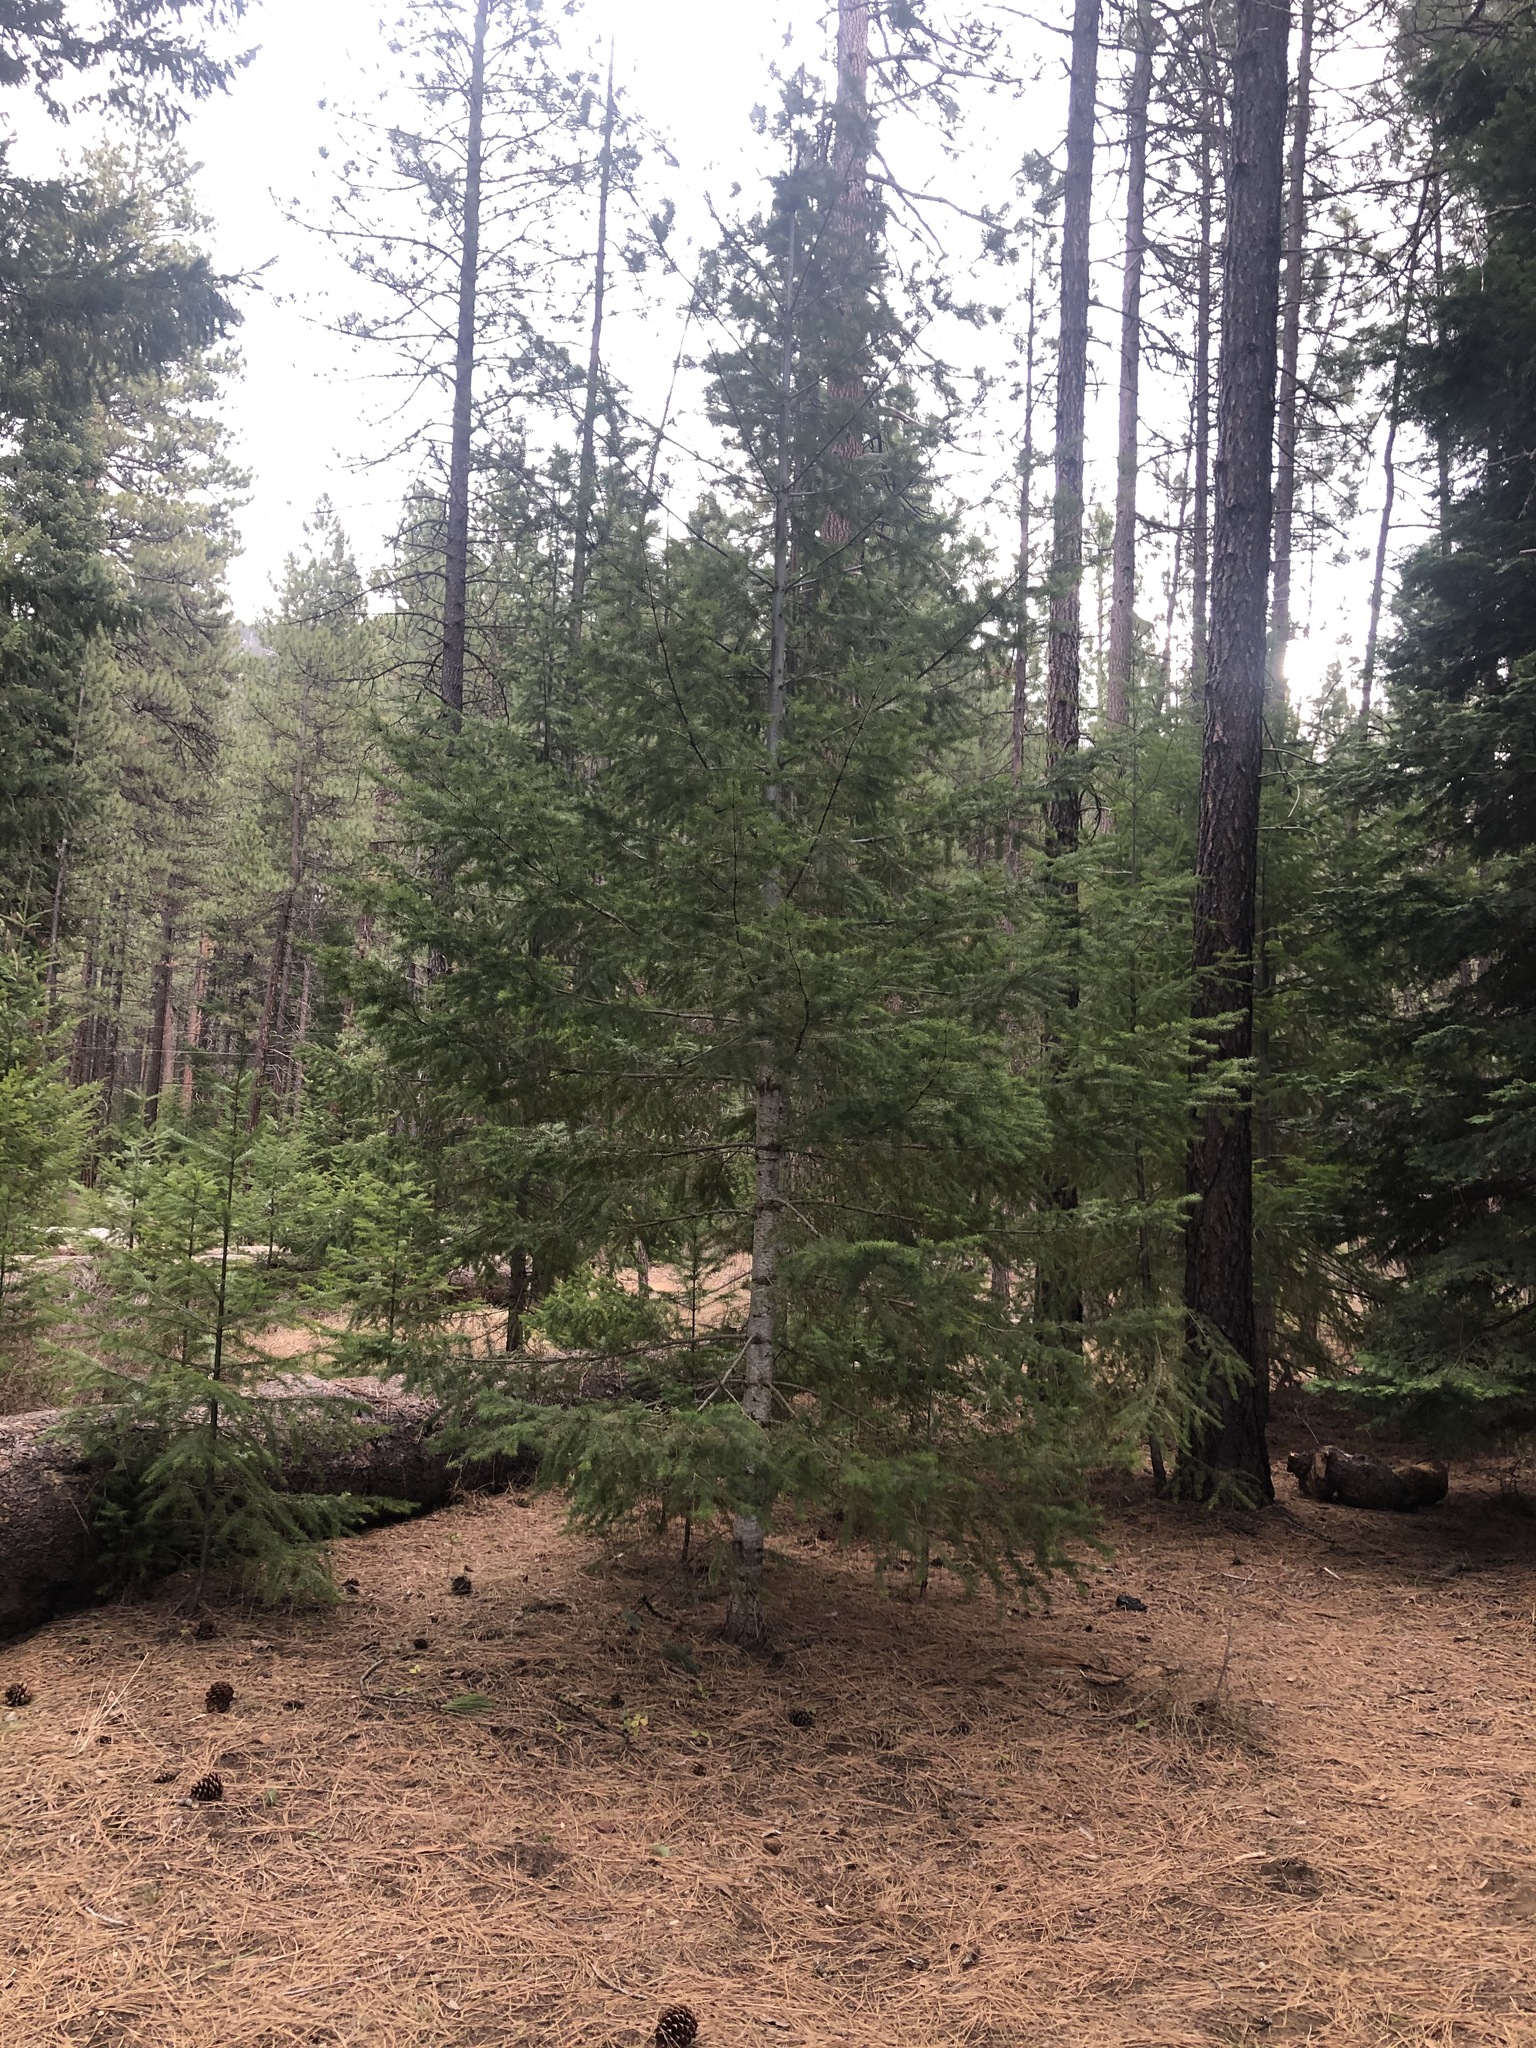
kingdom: Plantae
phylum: Tracheophyta
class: Pinopsida
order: Pinales
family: Pinaceae
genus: Pseudotsuga
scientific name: Pseudotsuga menziesii
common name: Douglas fir
